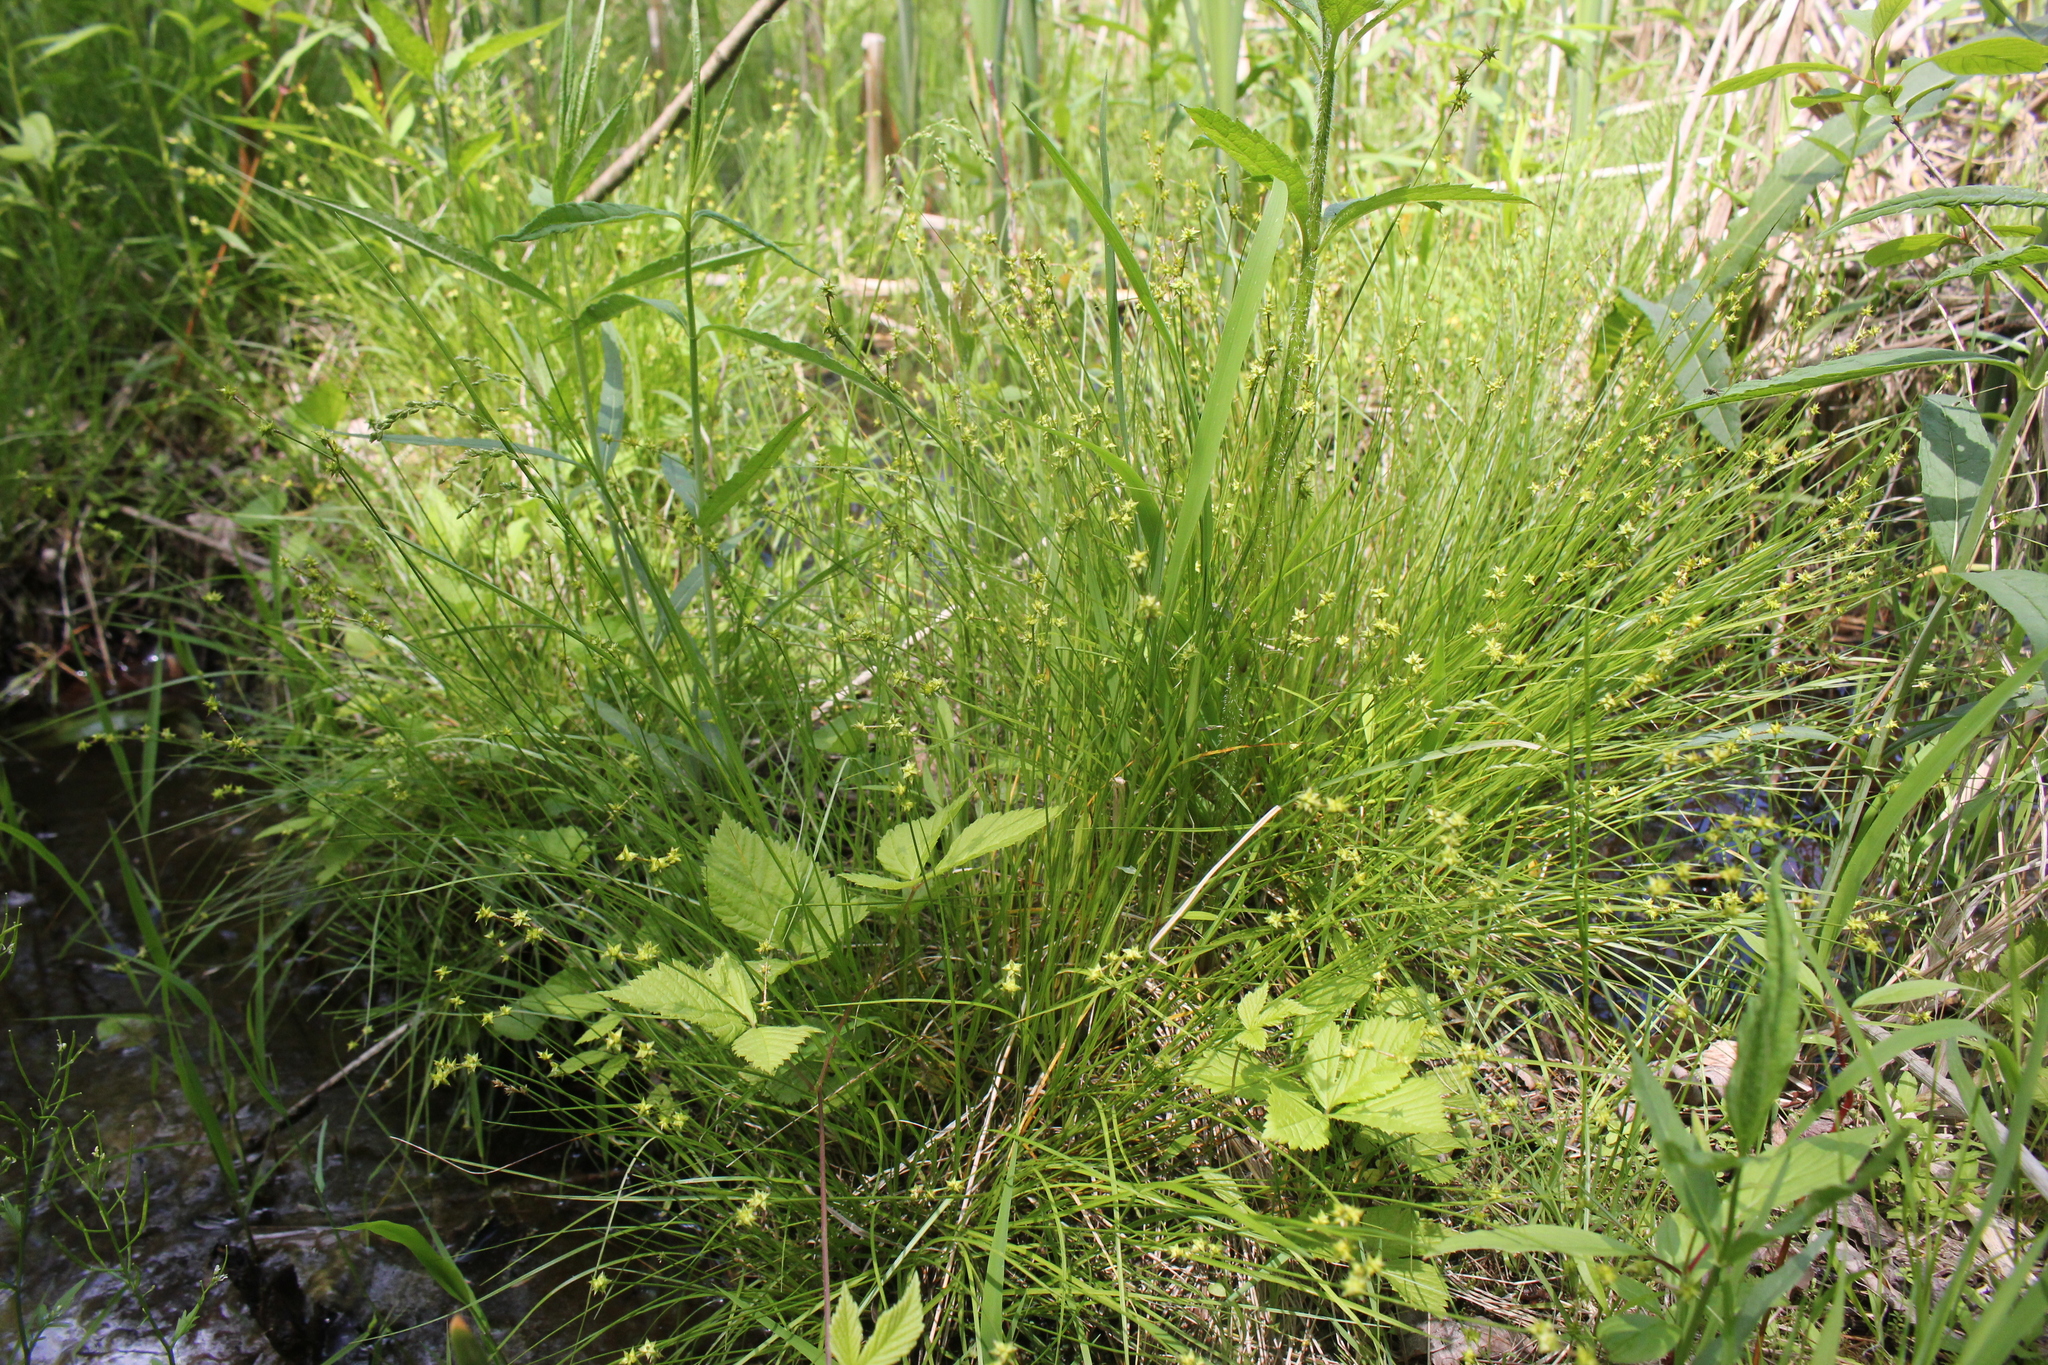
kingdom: Plantae
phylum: Tracheophyta
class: Liliopsida
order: Poales
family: Cyperaceae
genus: Carex
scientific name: Carex interior
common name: Inland sedge
